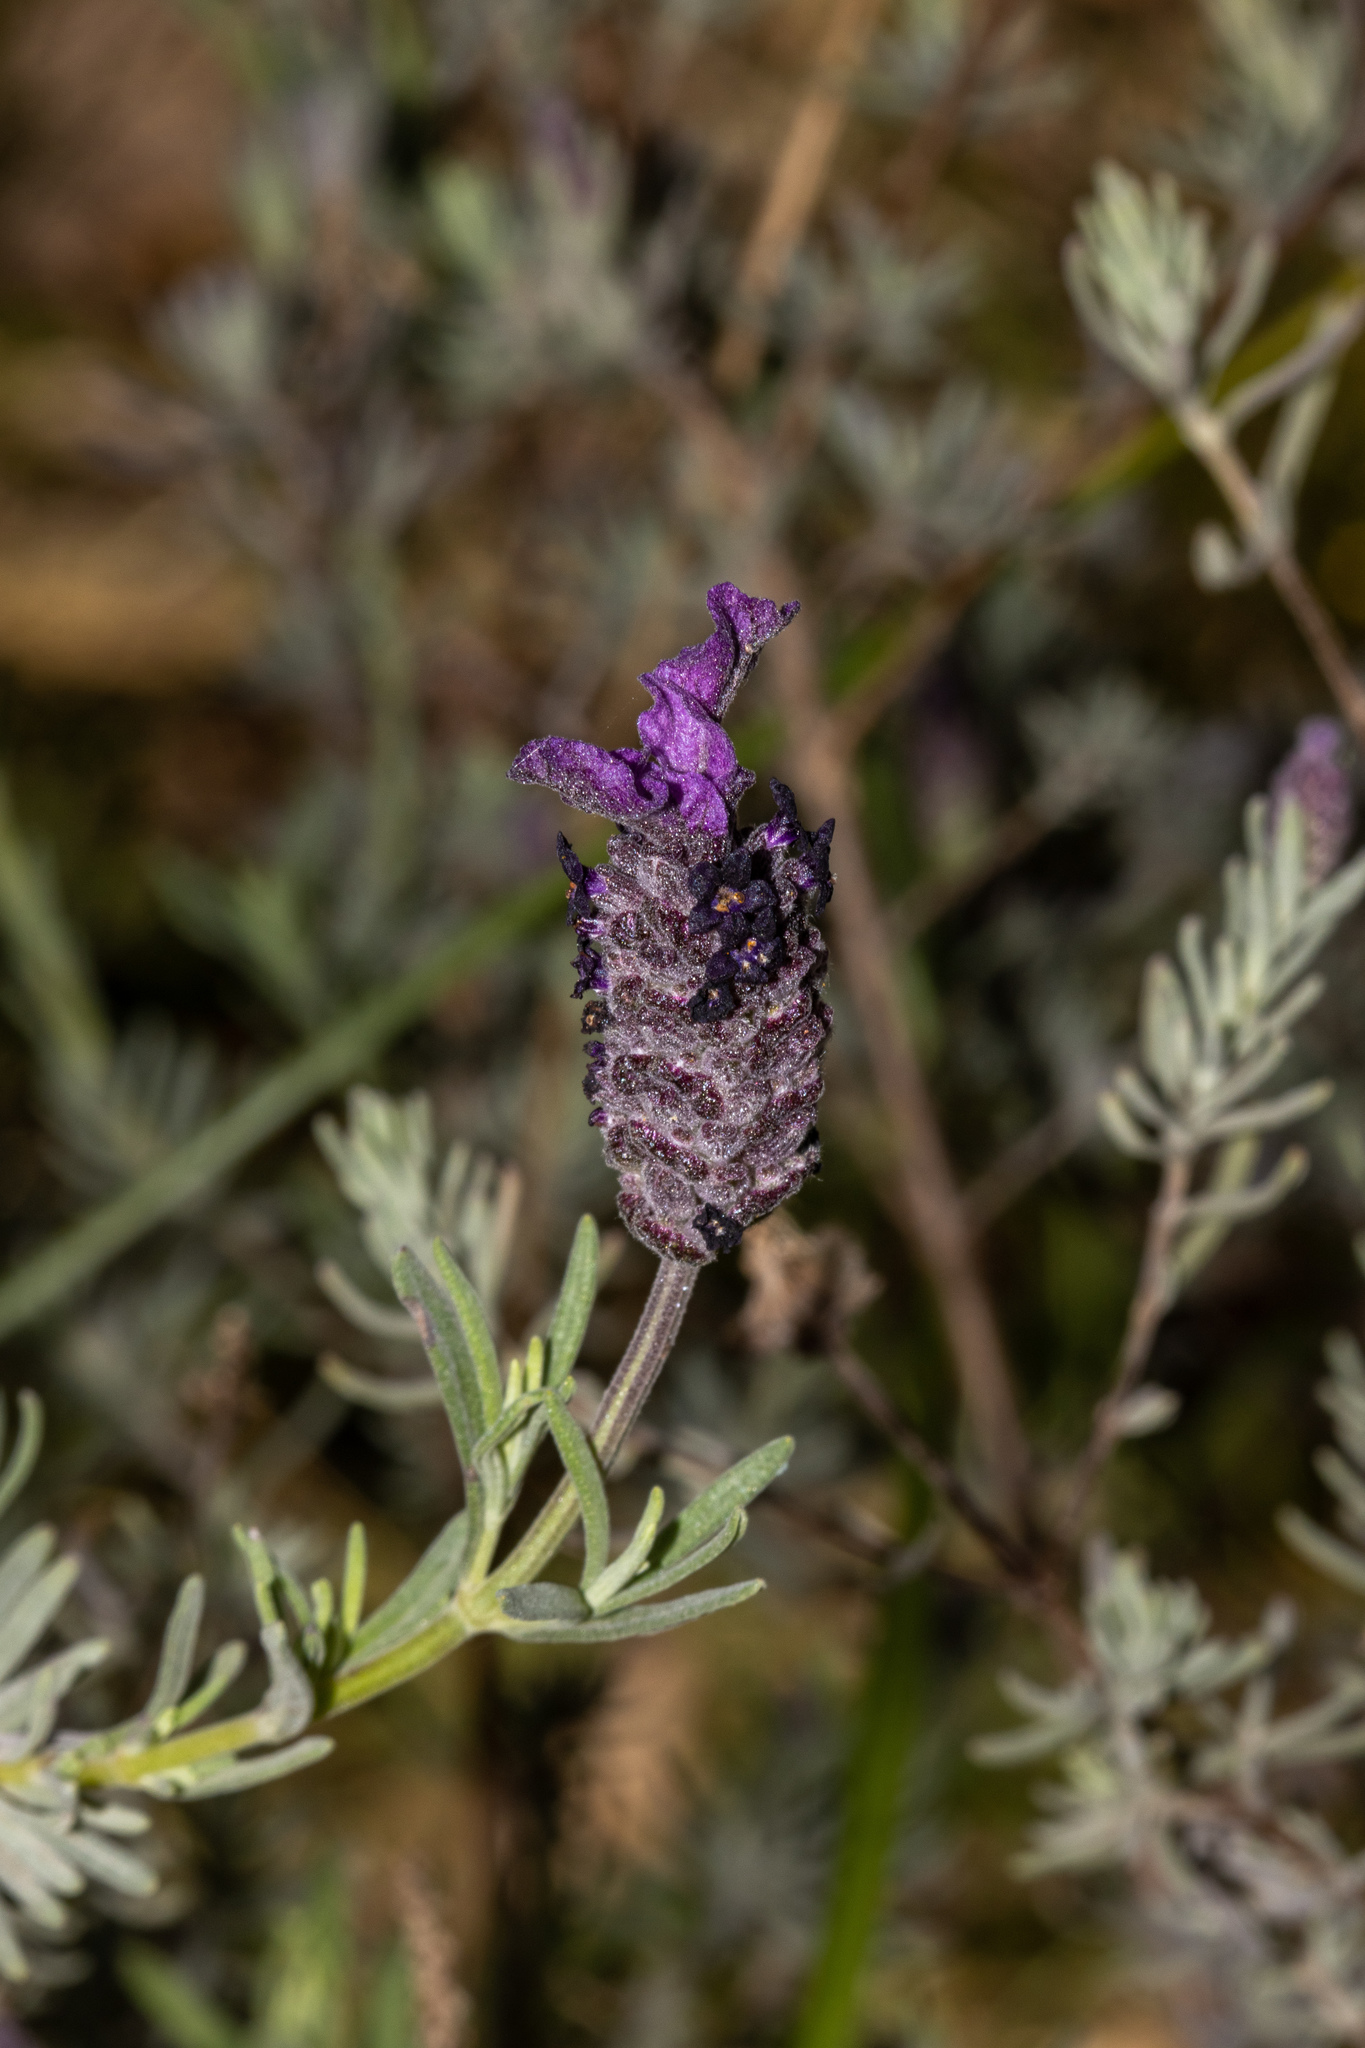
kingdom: Plantae
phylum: Tracheophyta
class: Magnoliopsida
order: Lamiales
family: Lamiaceae
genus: Lavandula
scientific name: Lavandula stoechas
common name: French lavender
